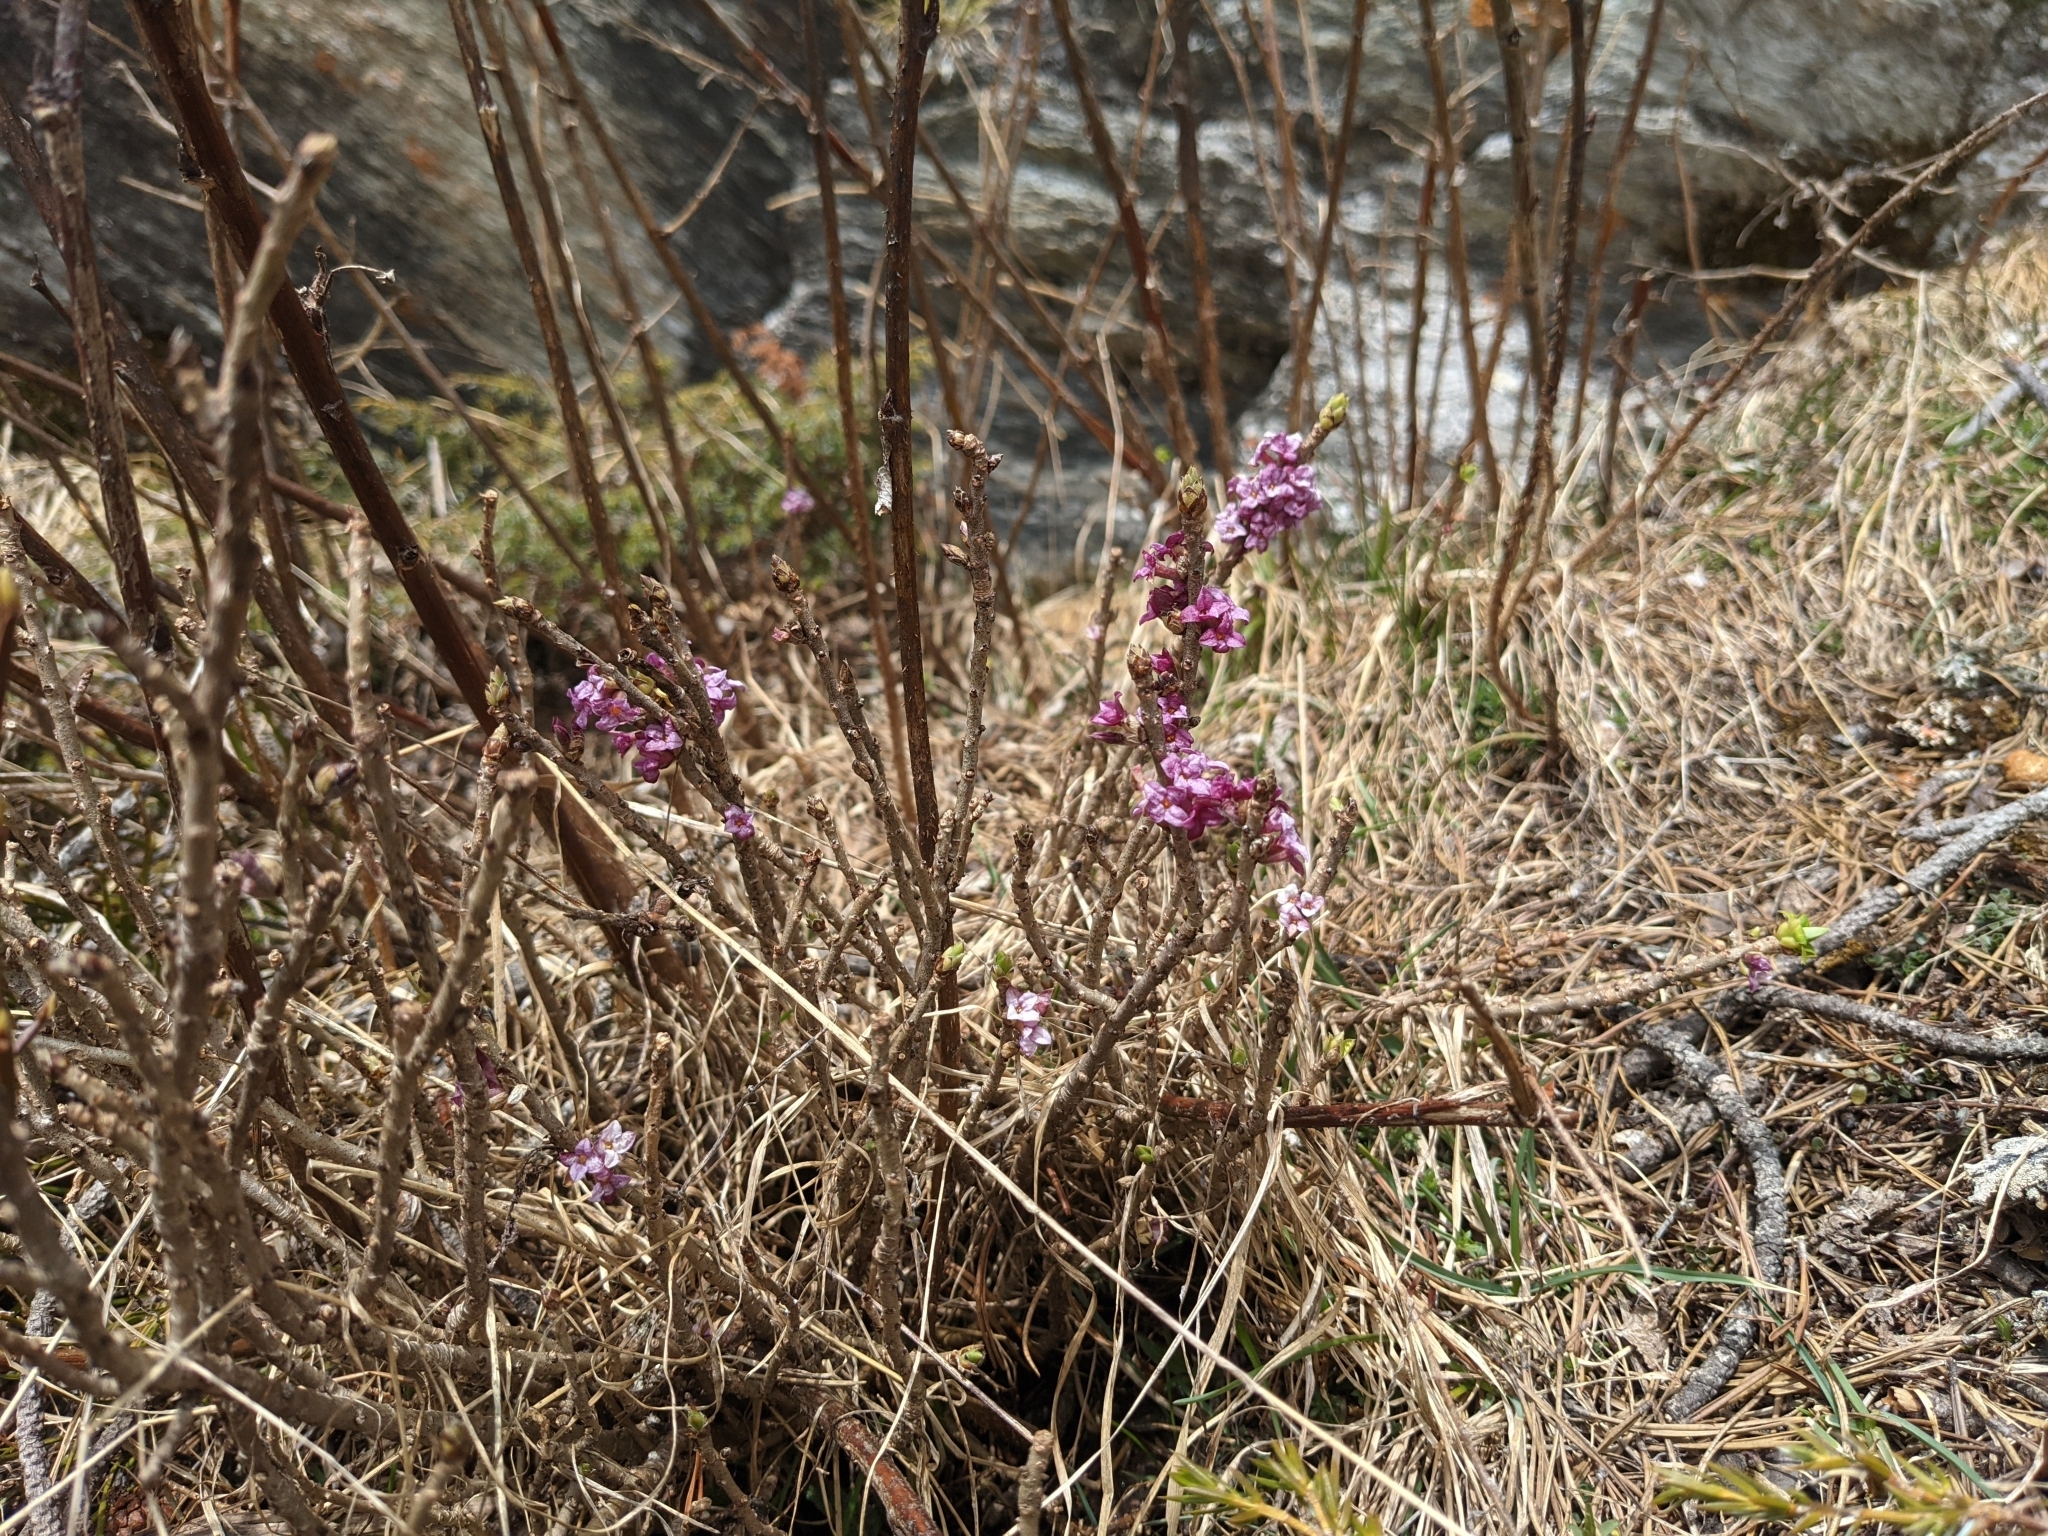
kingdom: Plantae
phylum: Tracheophyta
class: Magnoliopsida
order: Malvales
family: Thymelaeaceae
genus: Daphne
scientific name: Daphne mezereum
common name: Mezereon
